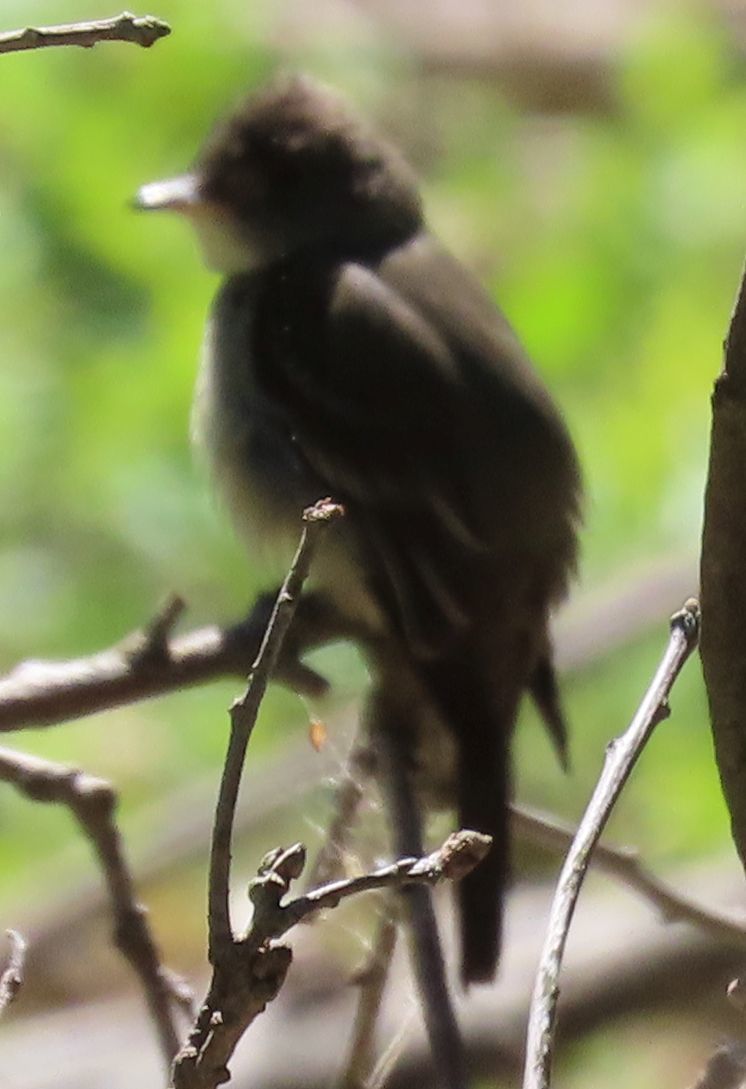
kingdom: Animalia
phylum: Chordata
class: Aves
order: Passeriformes
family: Tyrannidae
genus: Sayornis
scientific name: Sayornis phoebe
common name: Eastern phoebe
